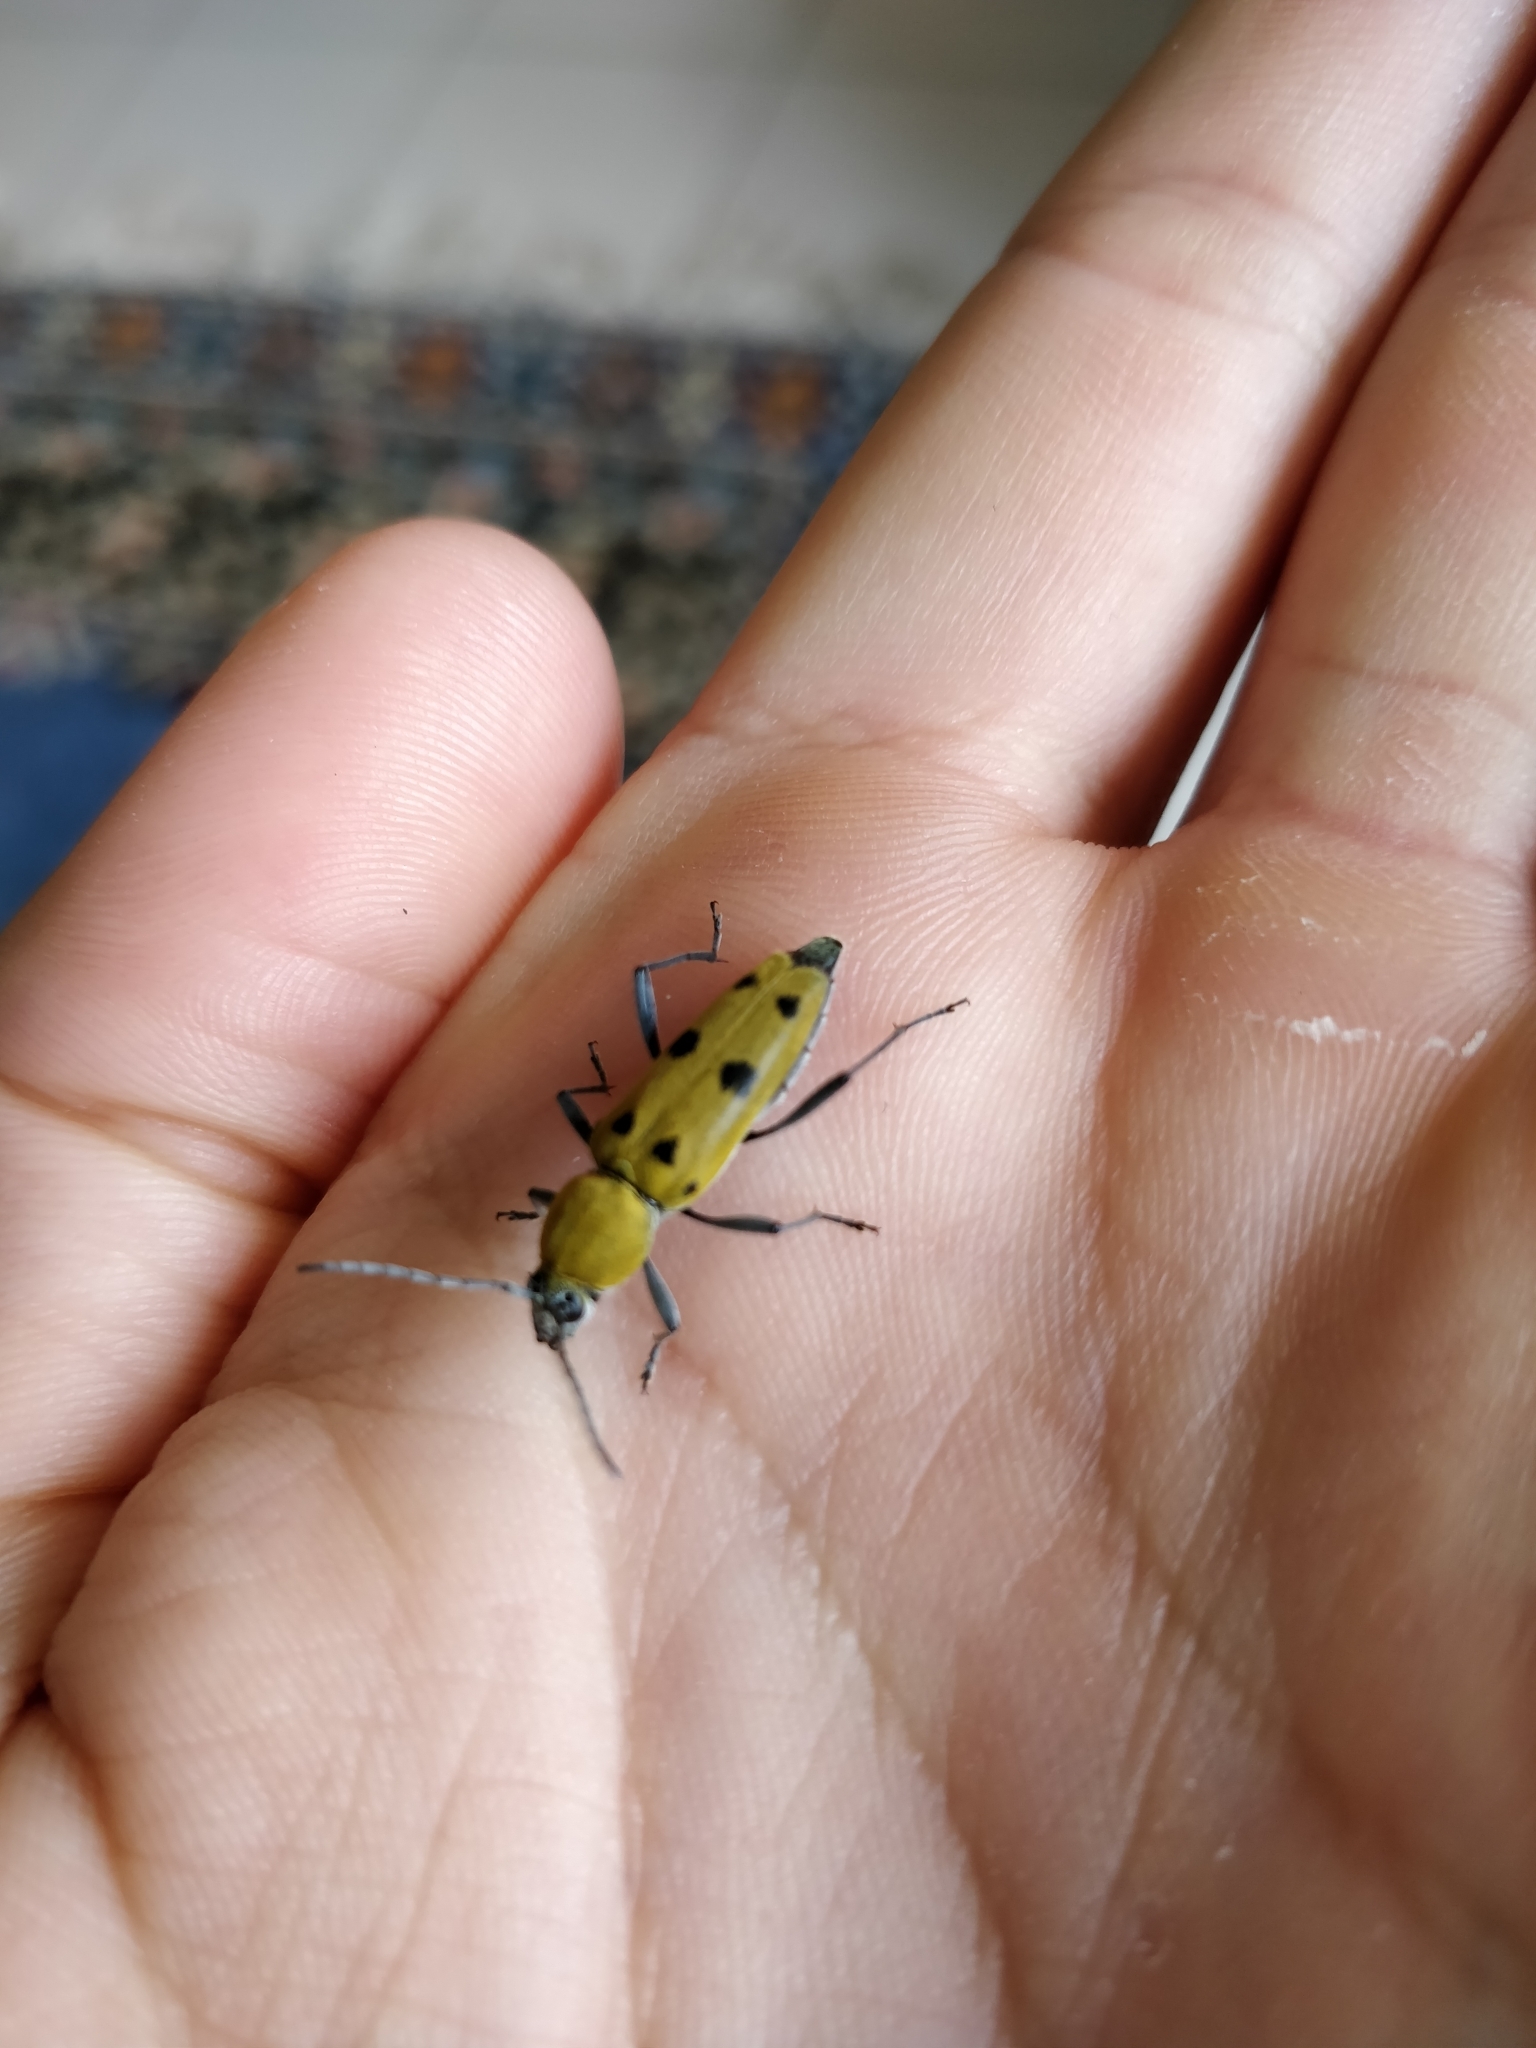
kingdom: Animalia
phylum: Arthropoda
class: Insecta
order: Coleoptera
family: Cerambycidae
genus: Chlorophorus
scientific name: Chlorophorus glabromaculatus
